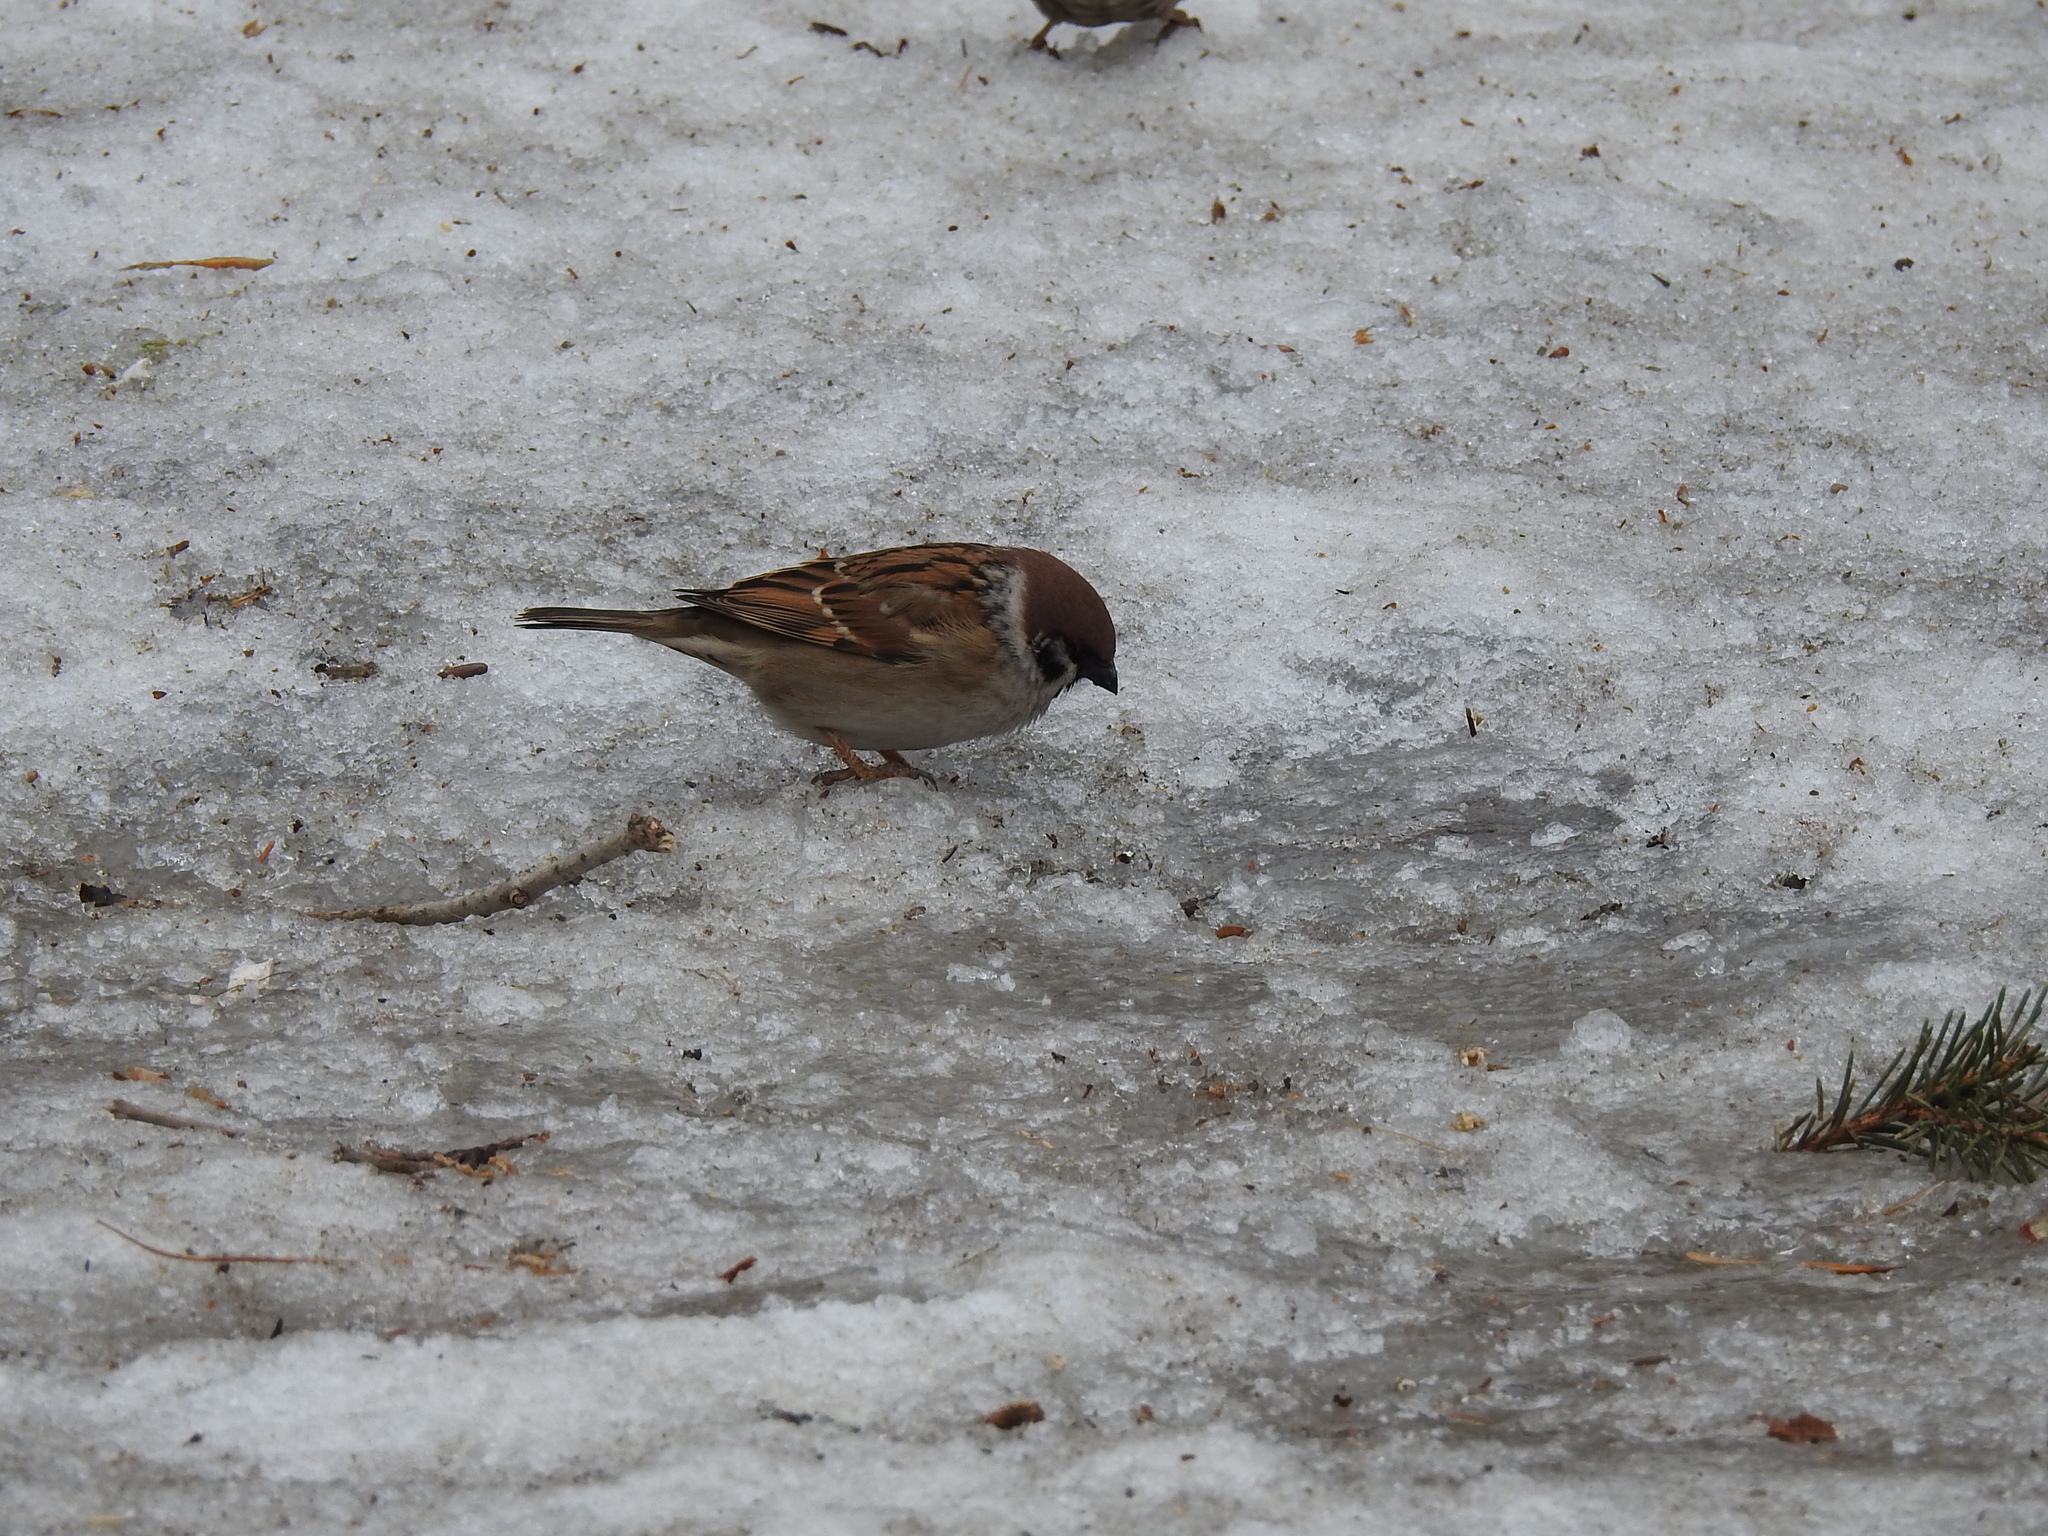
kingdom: Animalia
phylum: Chordata
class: Aves
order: Passeriformes
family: Passeridae
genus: Passer
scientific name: Passer montanus
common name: Eurasian tree sparrow
